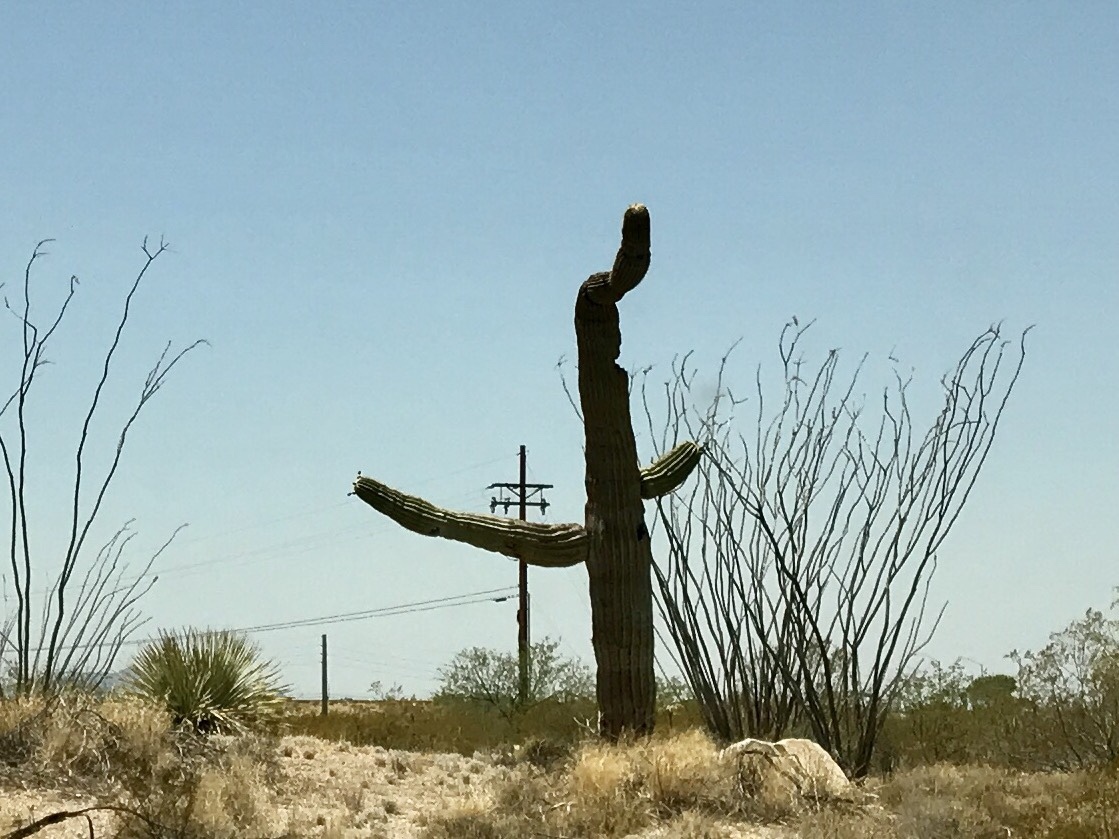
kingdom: Plantae
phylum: Tracheophyta
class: Magnoliopsida
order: Caryophyllales
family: Cactaceae
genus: Carnegiea
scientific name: Carnegiea gigantea
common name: Saguaro
